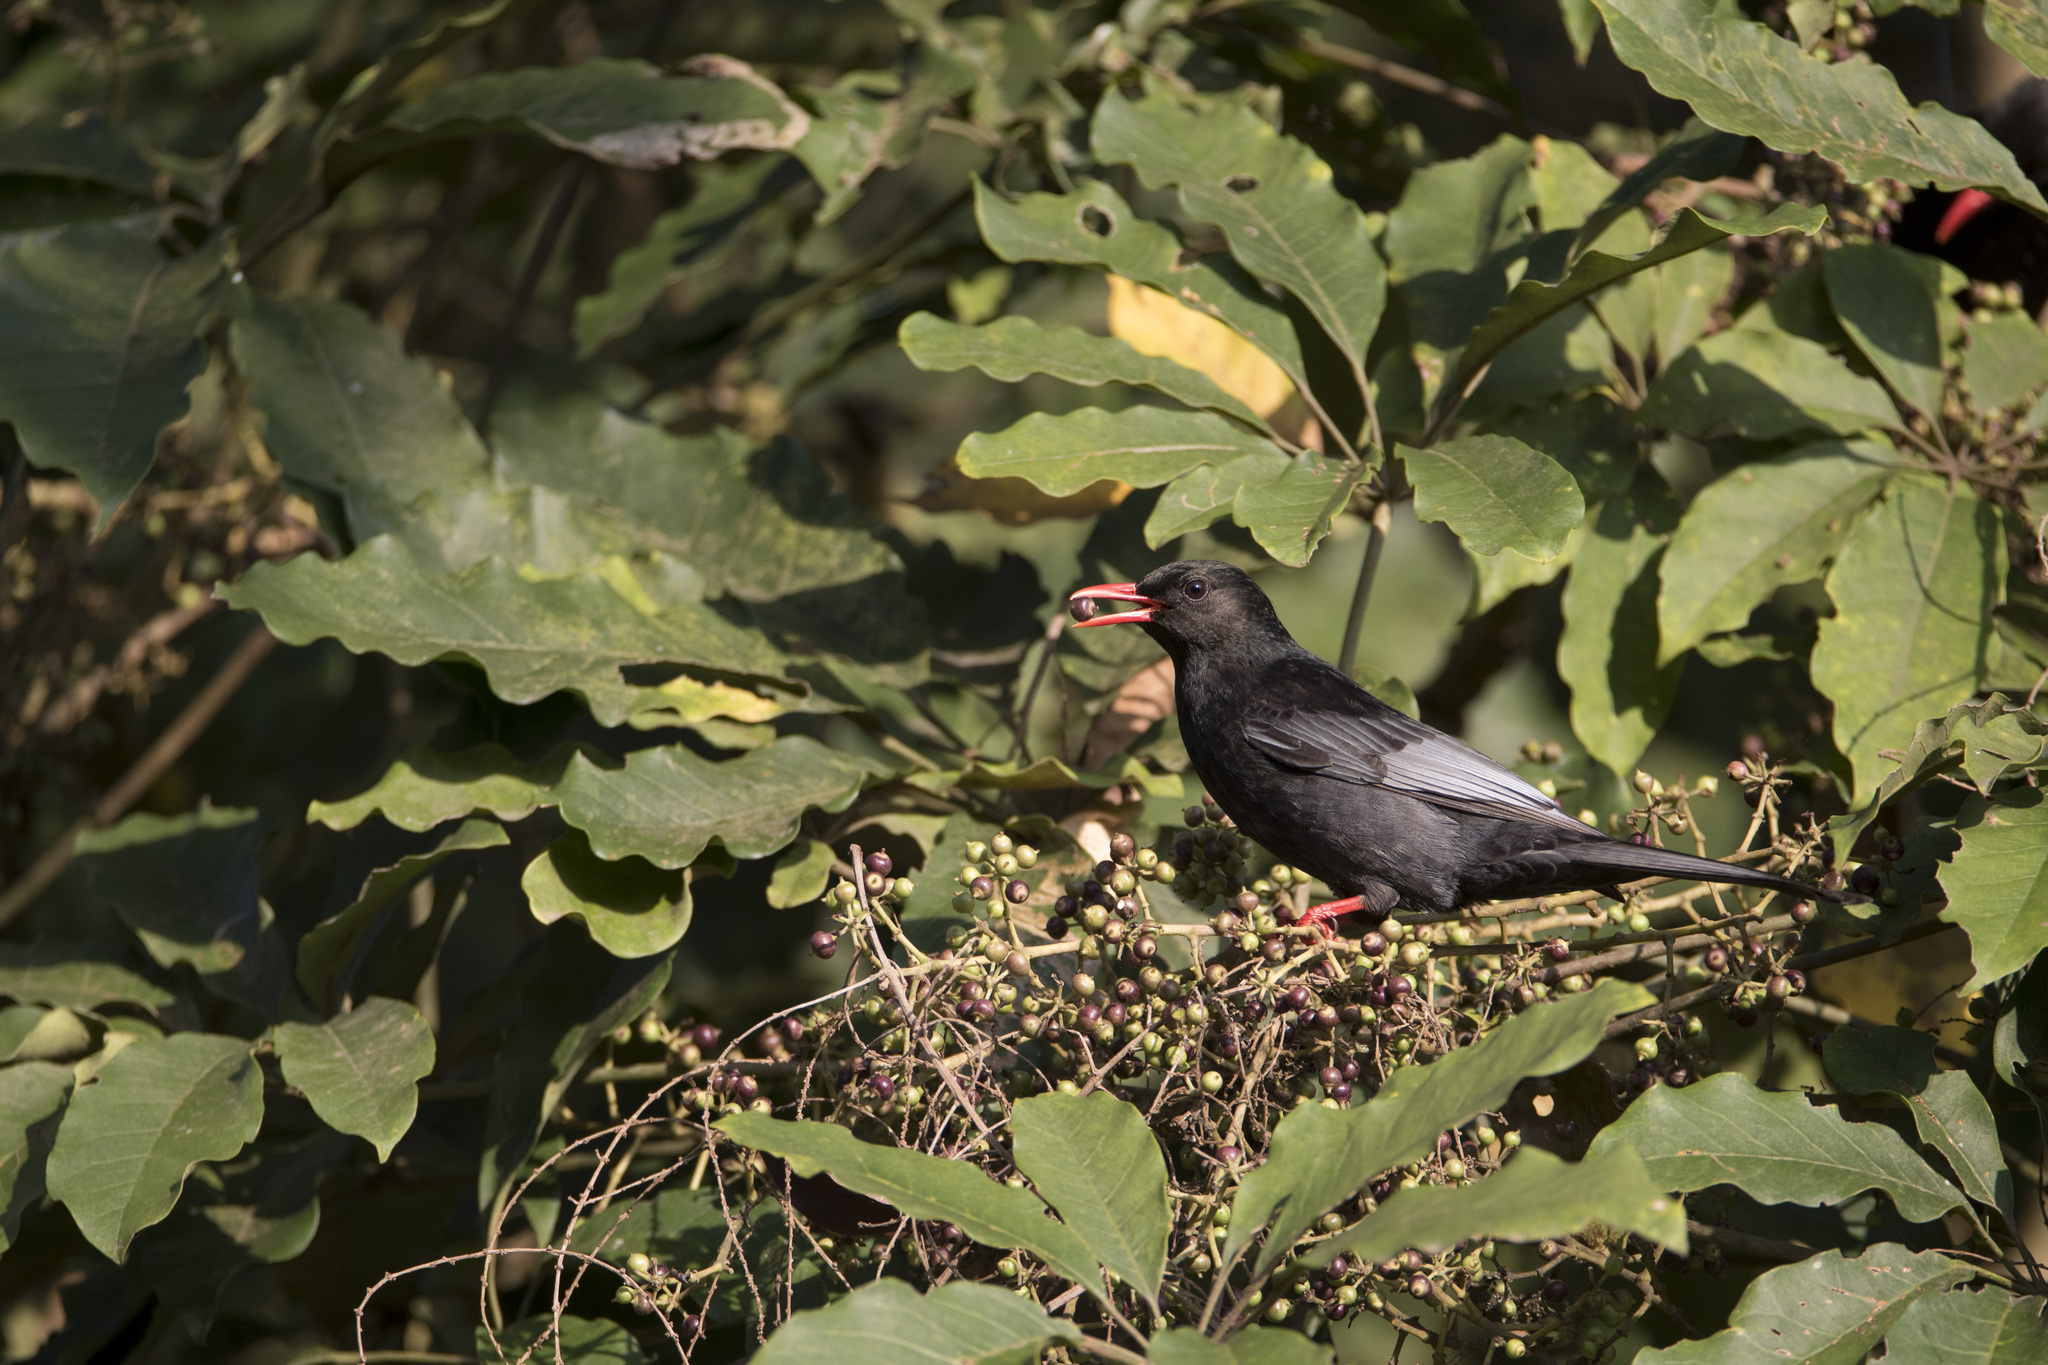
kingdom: Animalia
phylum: Chordata
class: Aves
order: Passeriformes
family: Pycnonotidae
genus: Hypsipetes
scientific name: Hypsipetes leucocephalus
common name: Black bulbul
